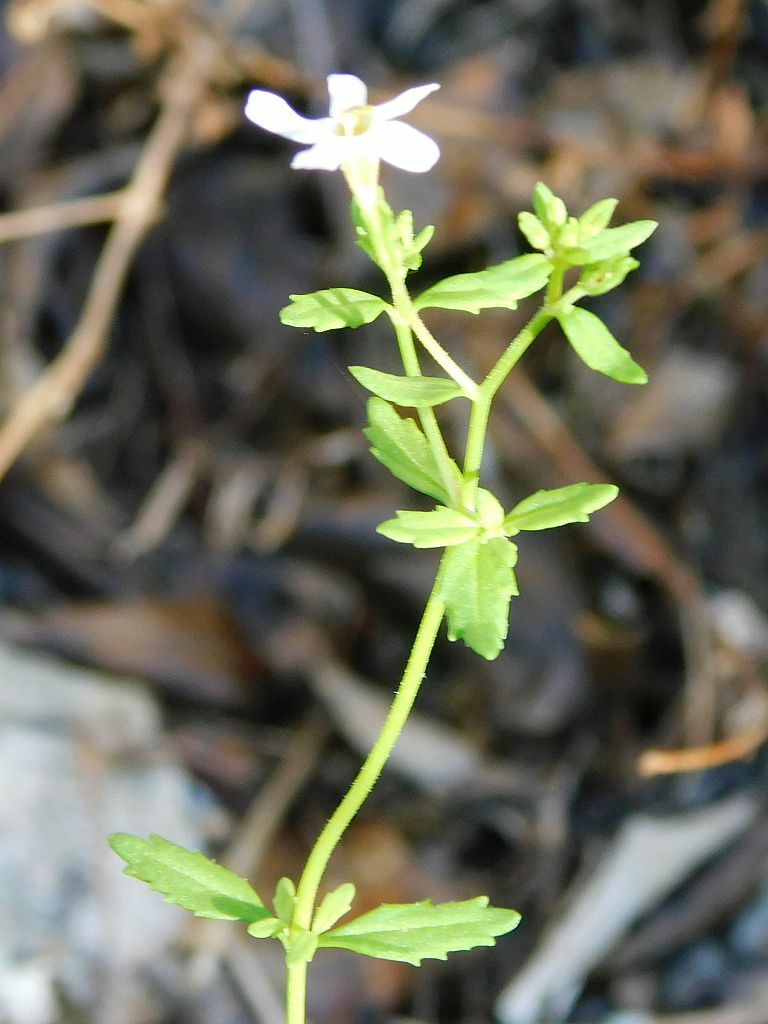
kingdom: Plantae
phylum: Tracheophyta
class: Magnoliopsida
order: Lamiales
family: Scrophulariaceae
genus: Chaenostoma
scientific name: Chaenostoma hispidum
